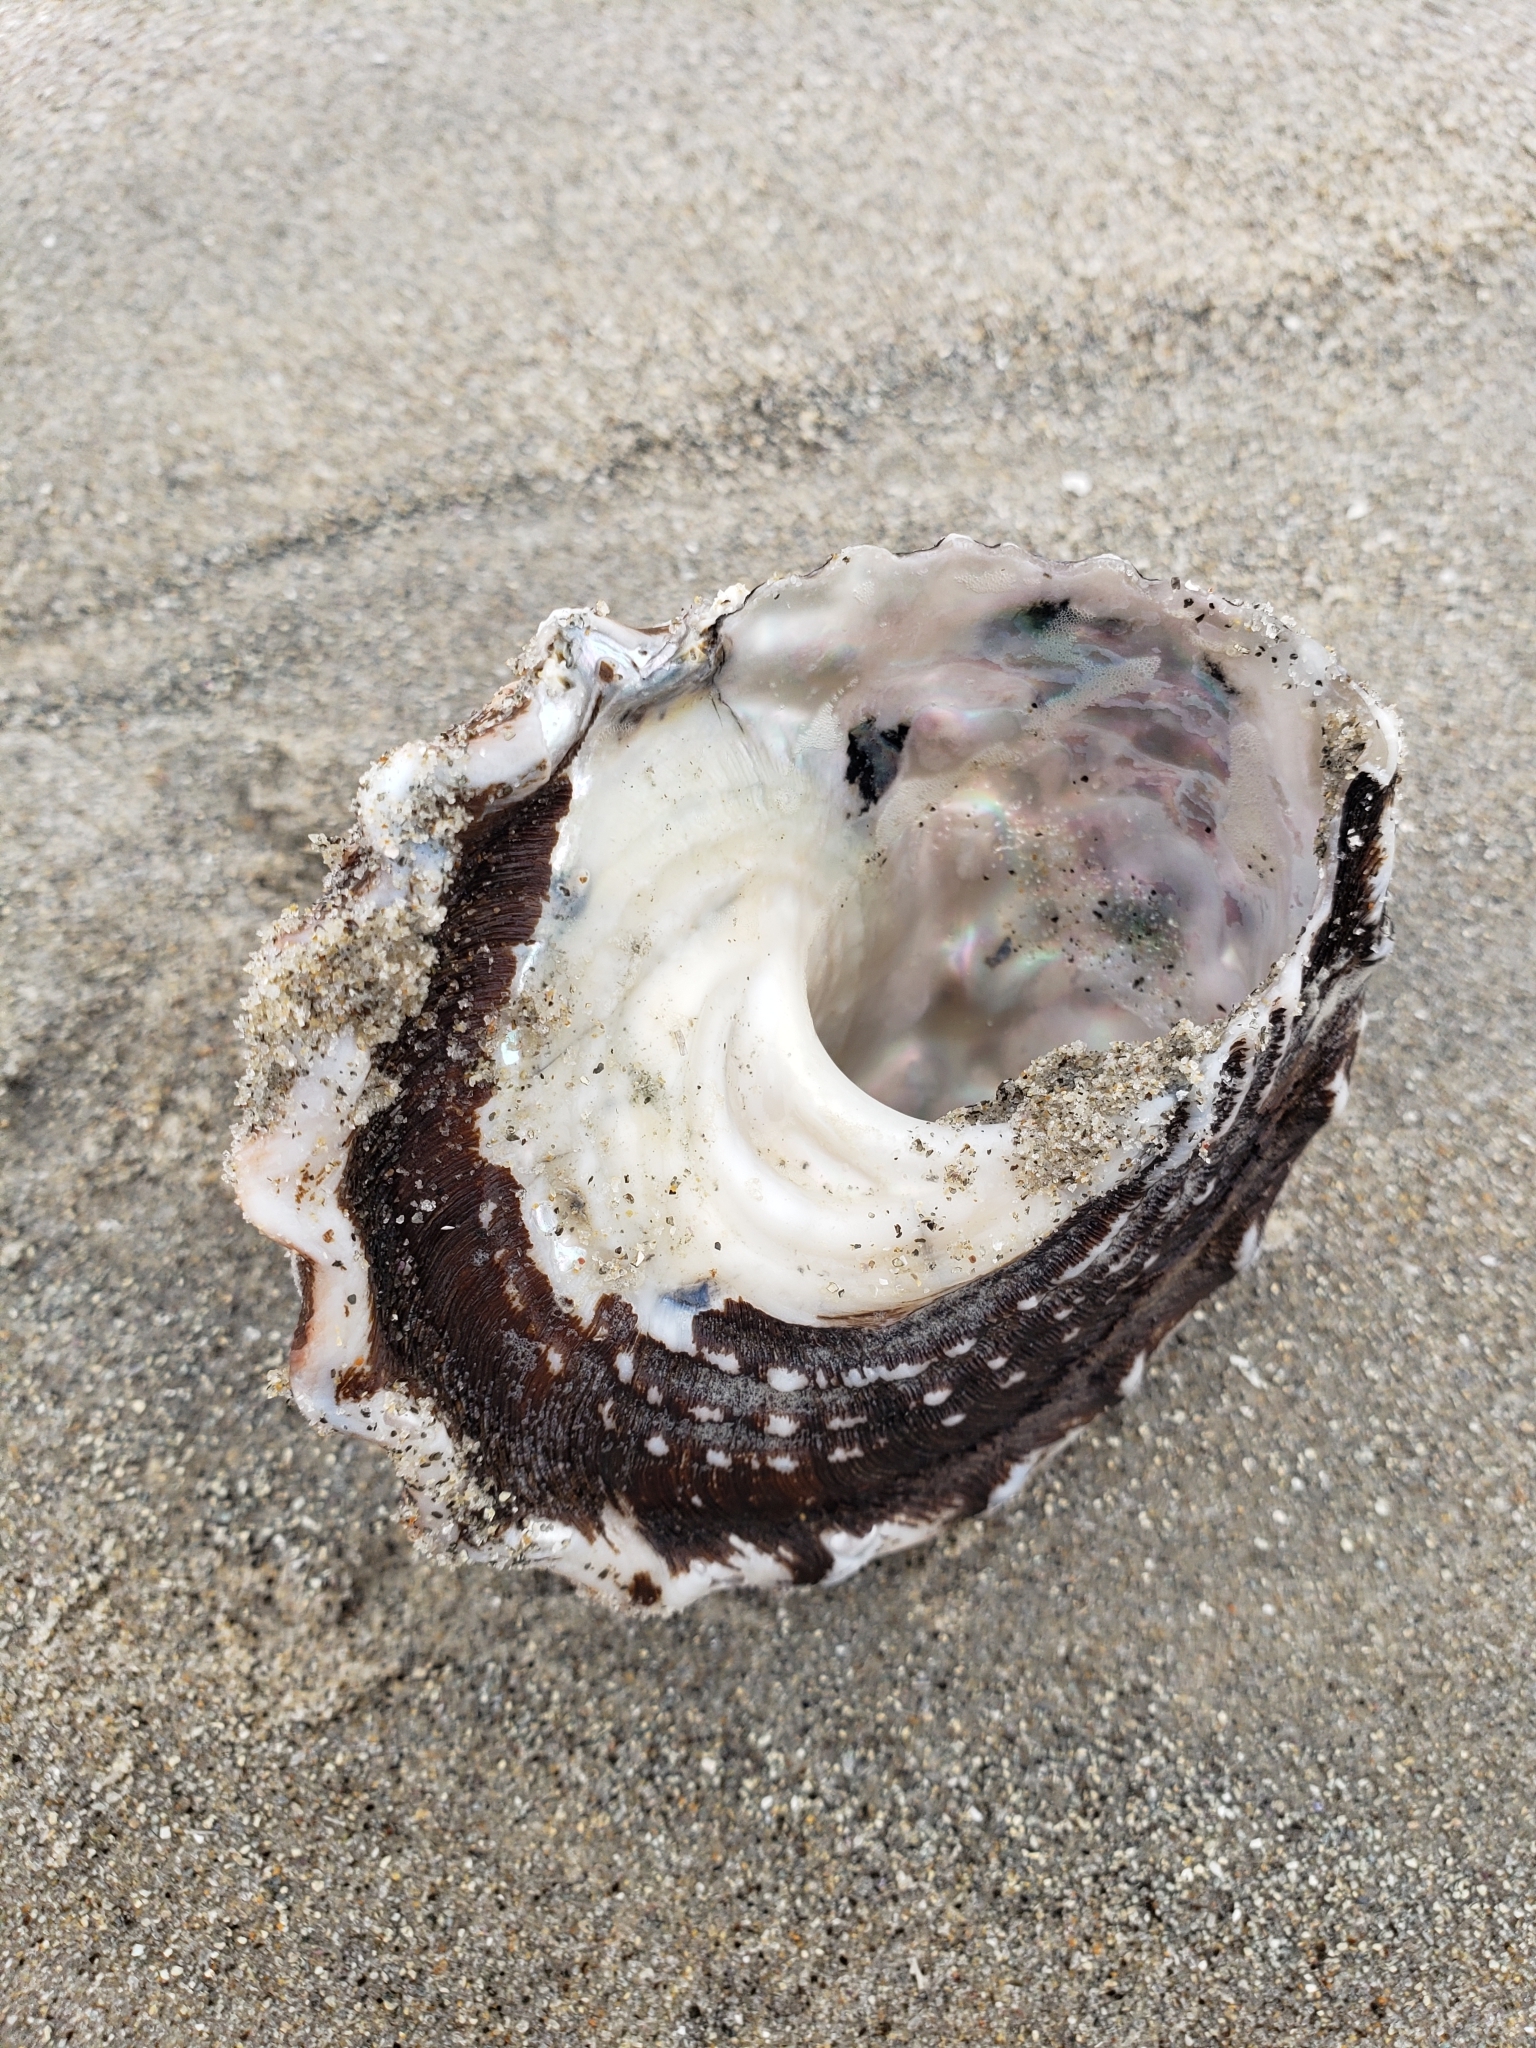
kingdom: Animalia
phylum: Mollusca
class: Gastropoda
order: Trochida
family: Turbinidae
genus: Megastraea
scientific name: Megastraea undosa
